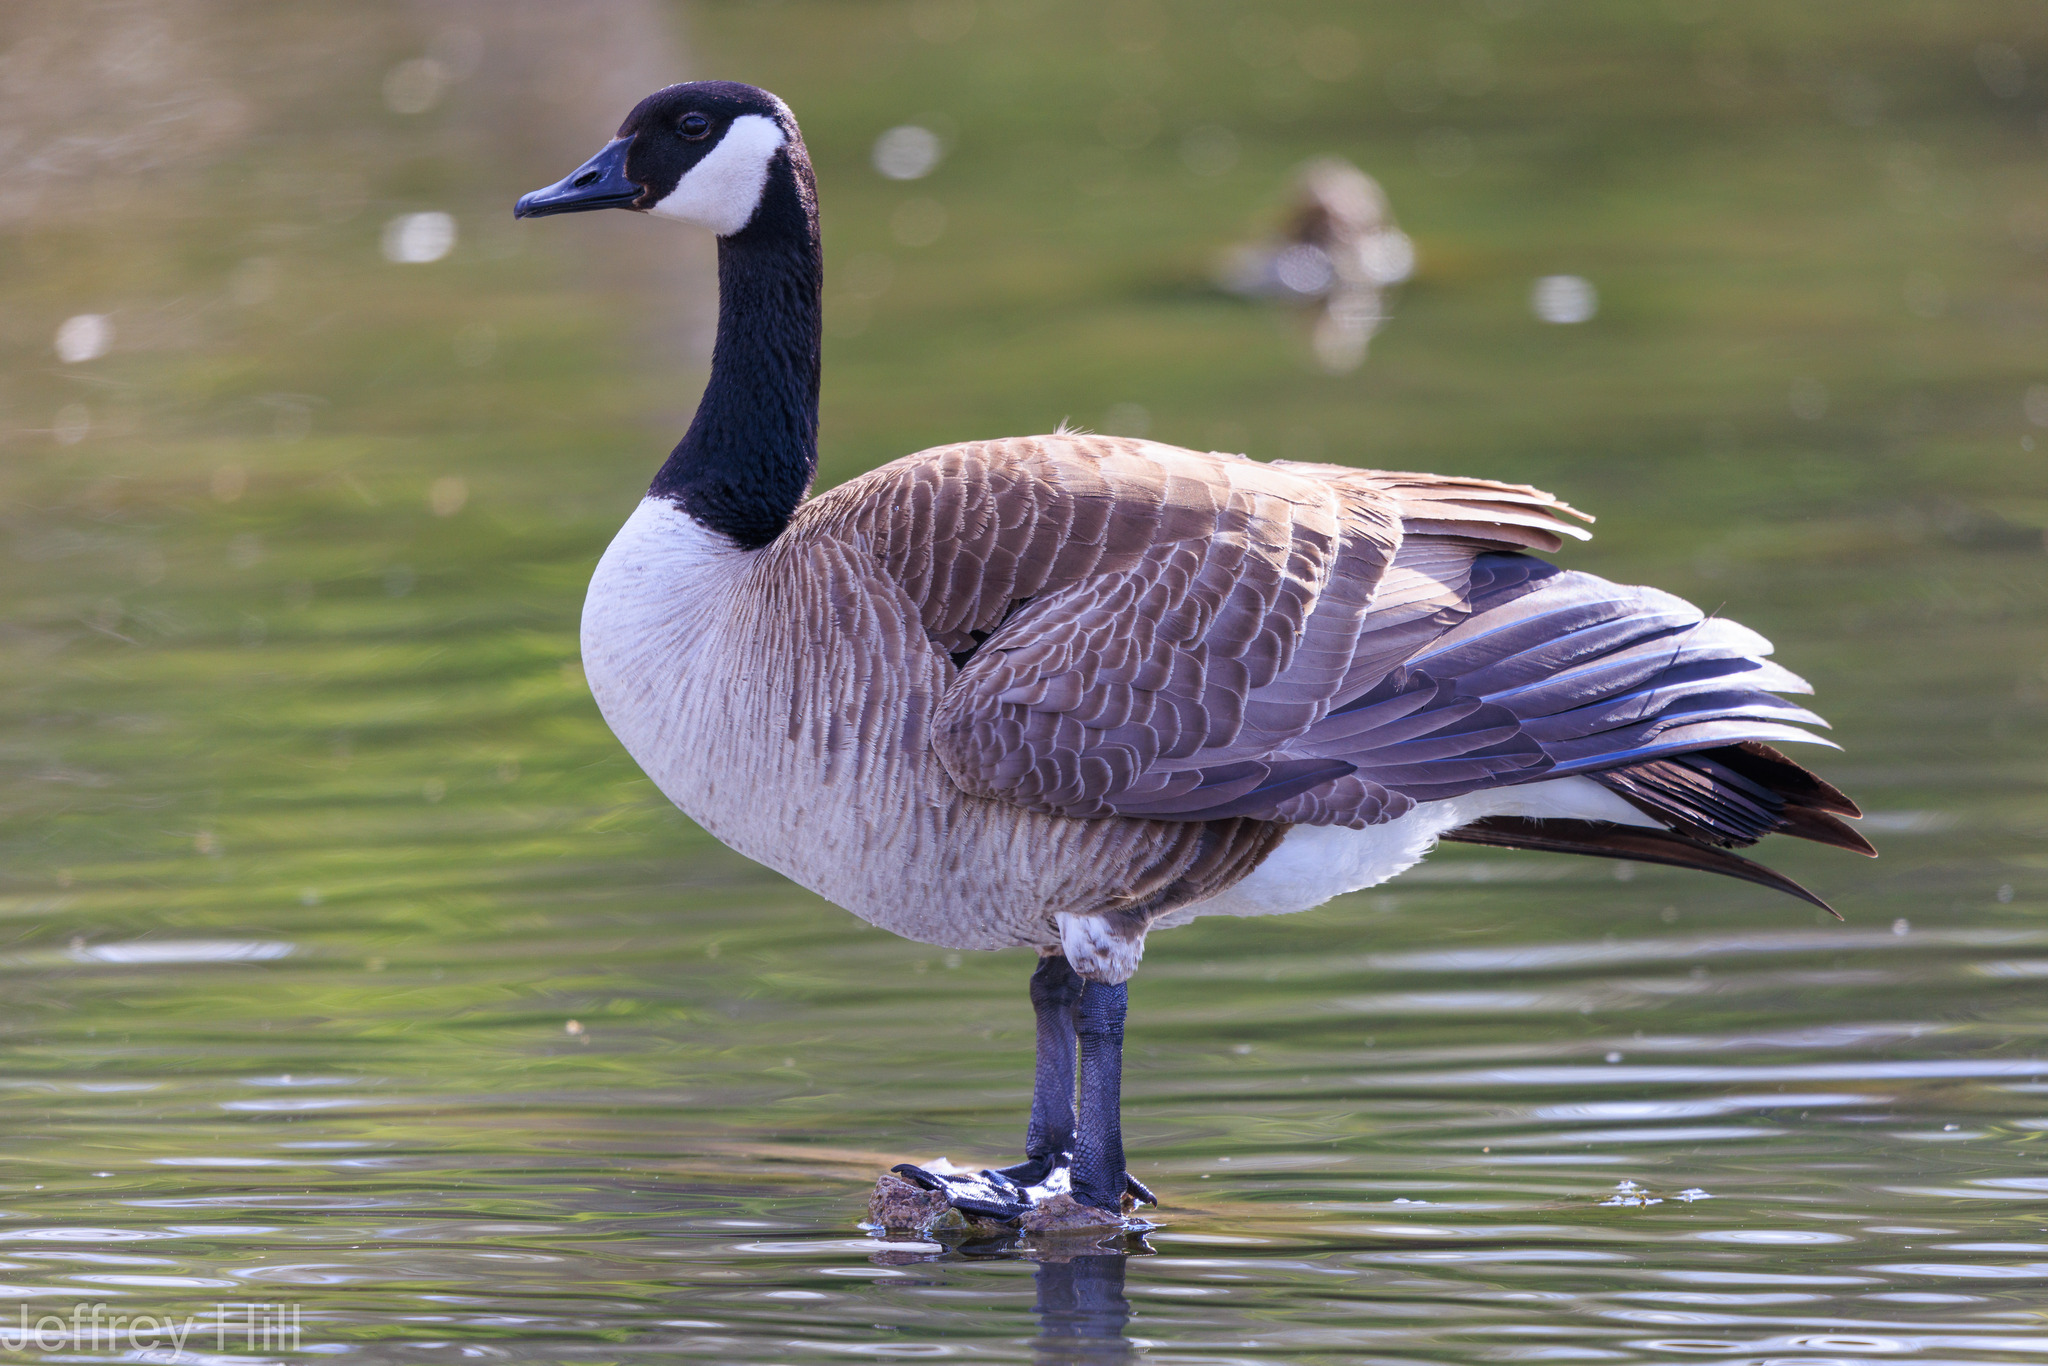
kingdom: Animalia
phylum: Chordata
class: Aves
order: Anseriformes
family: Anatidae
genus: Branta
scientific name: Branta canadensis
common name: Canada goose
